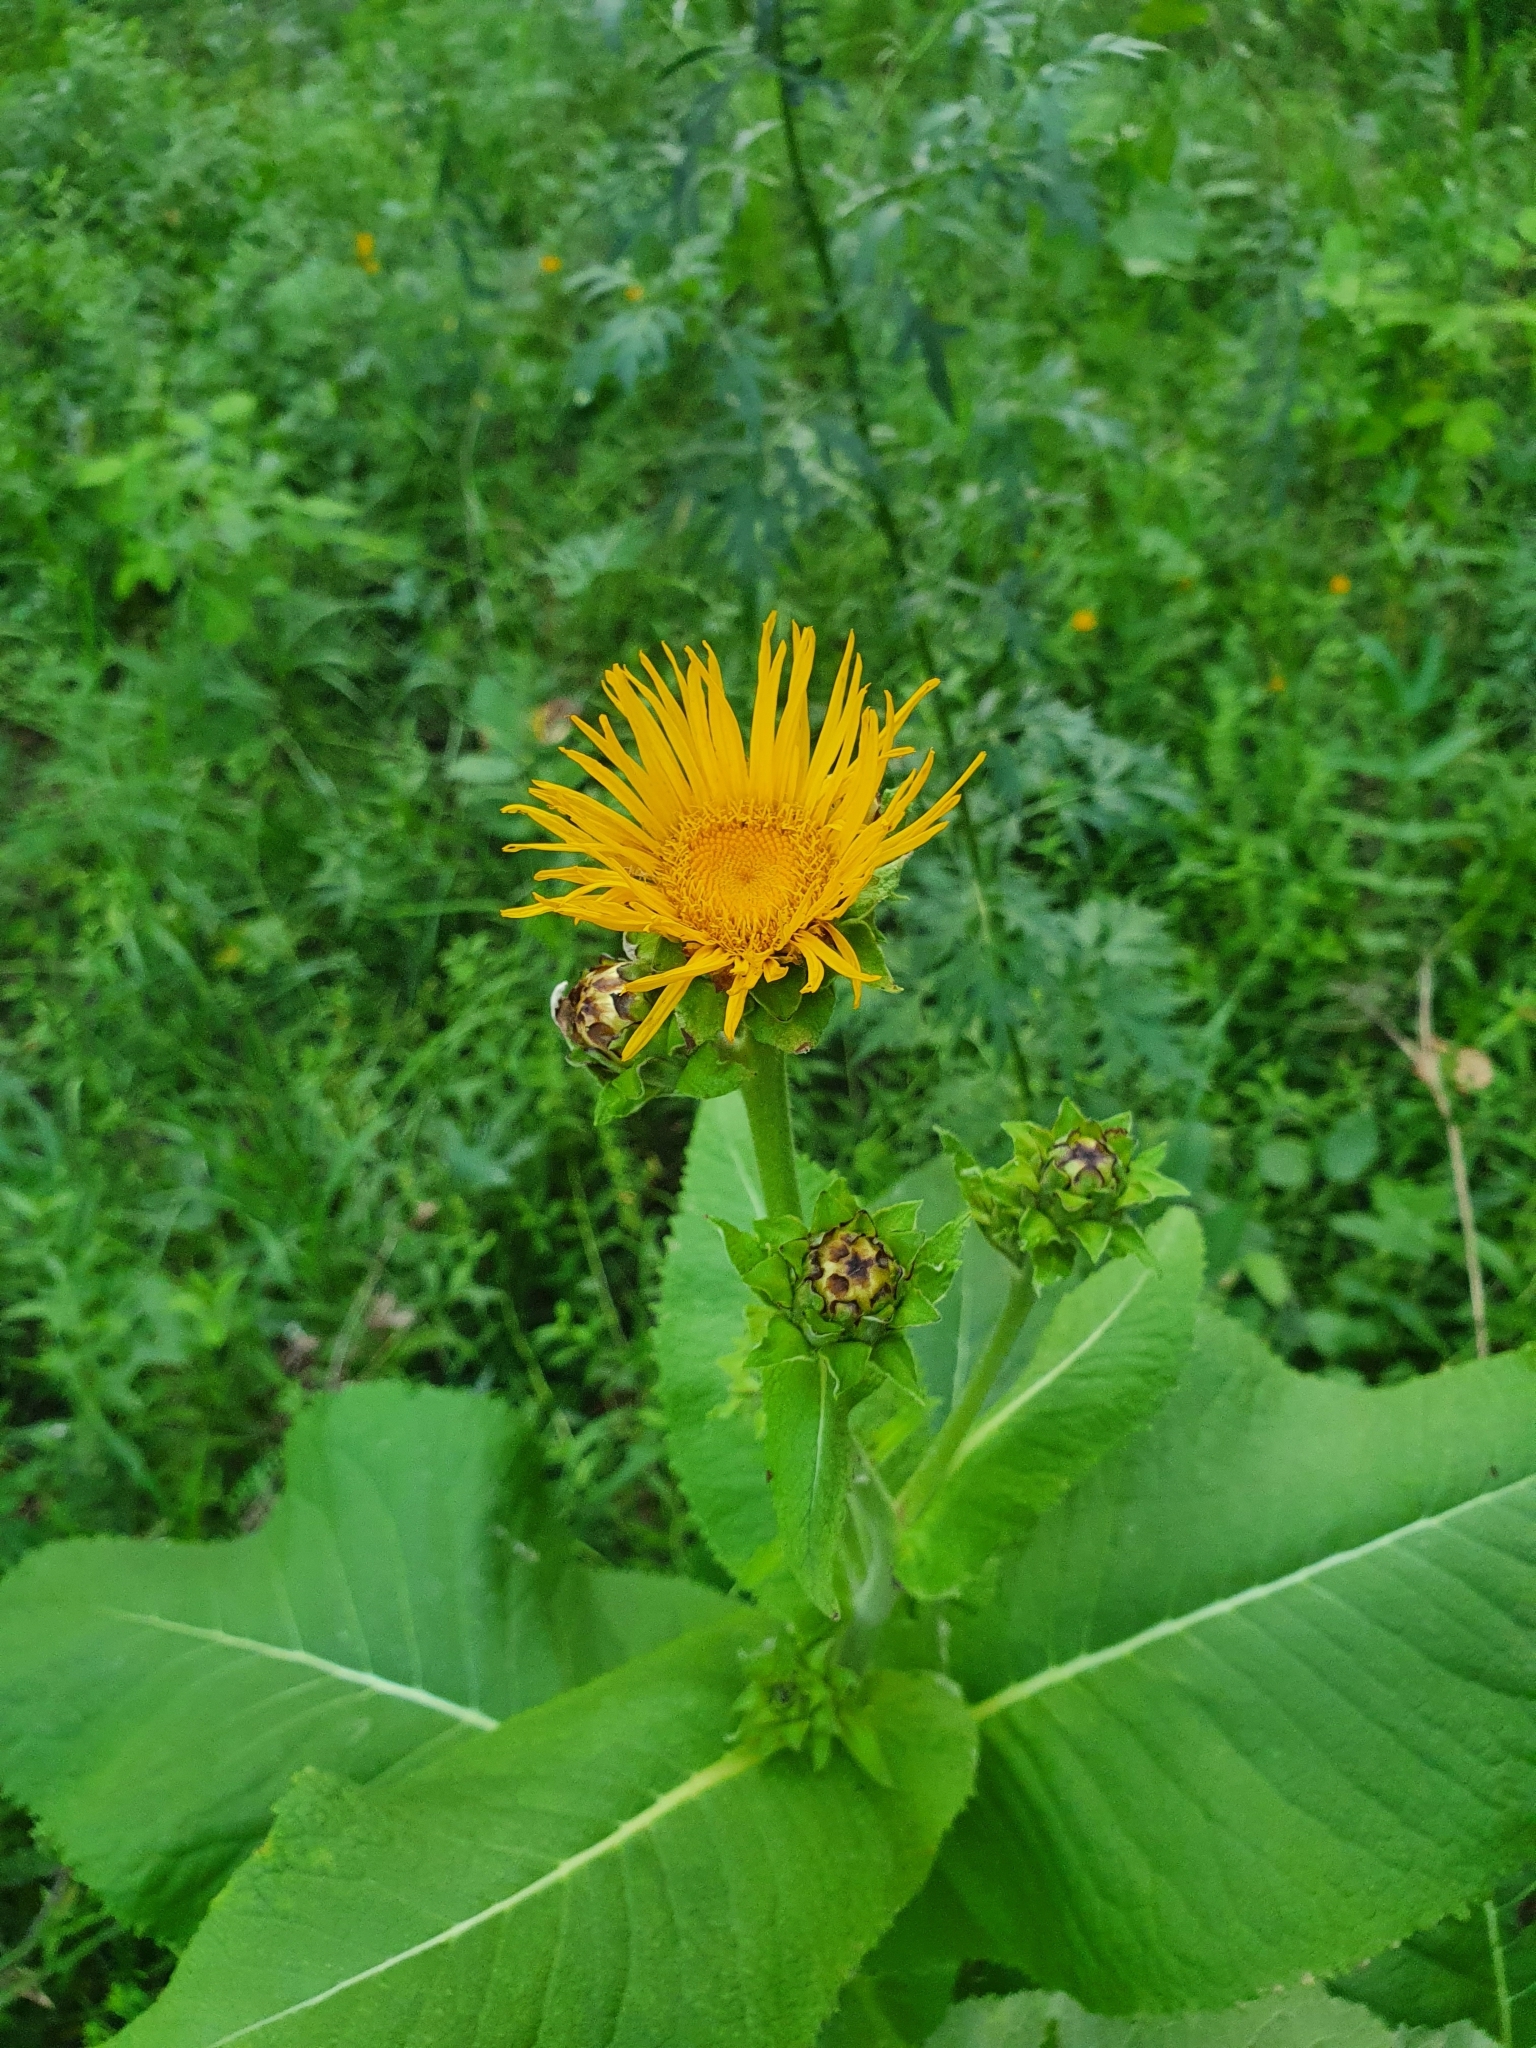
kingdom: Plantae
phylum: Tracheophyta
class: Magnoliopsida
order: Asterales
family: Asteraceae
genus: Inula
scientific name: Inula helenium
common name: Elecampane
